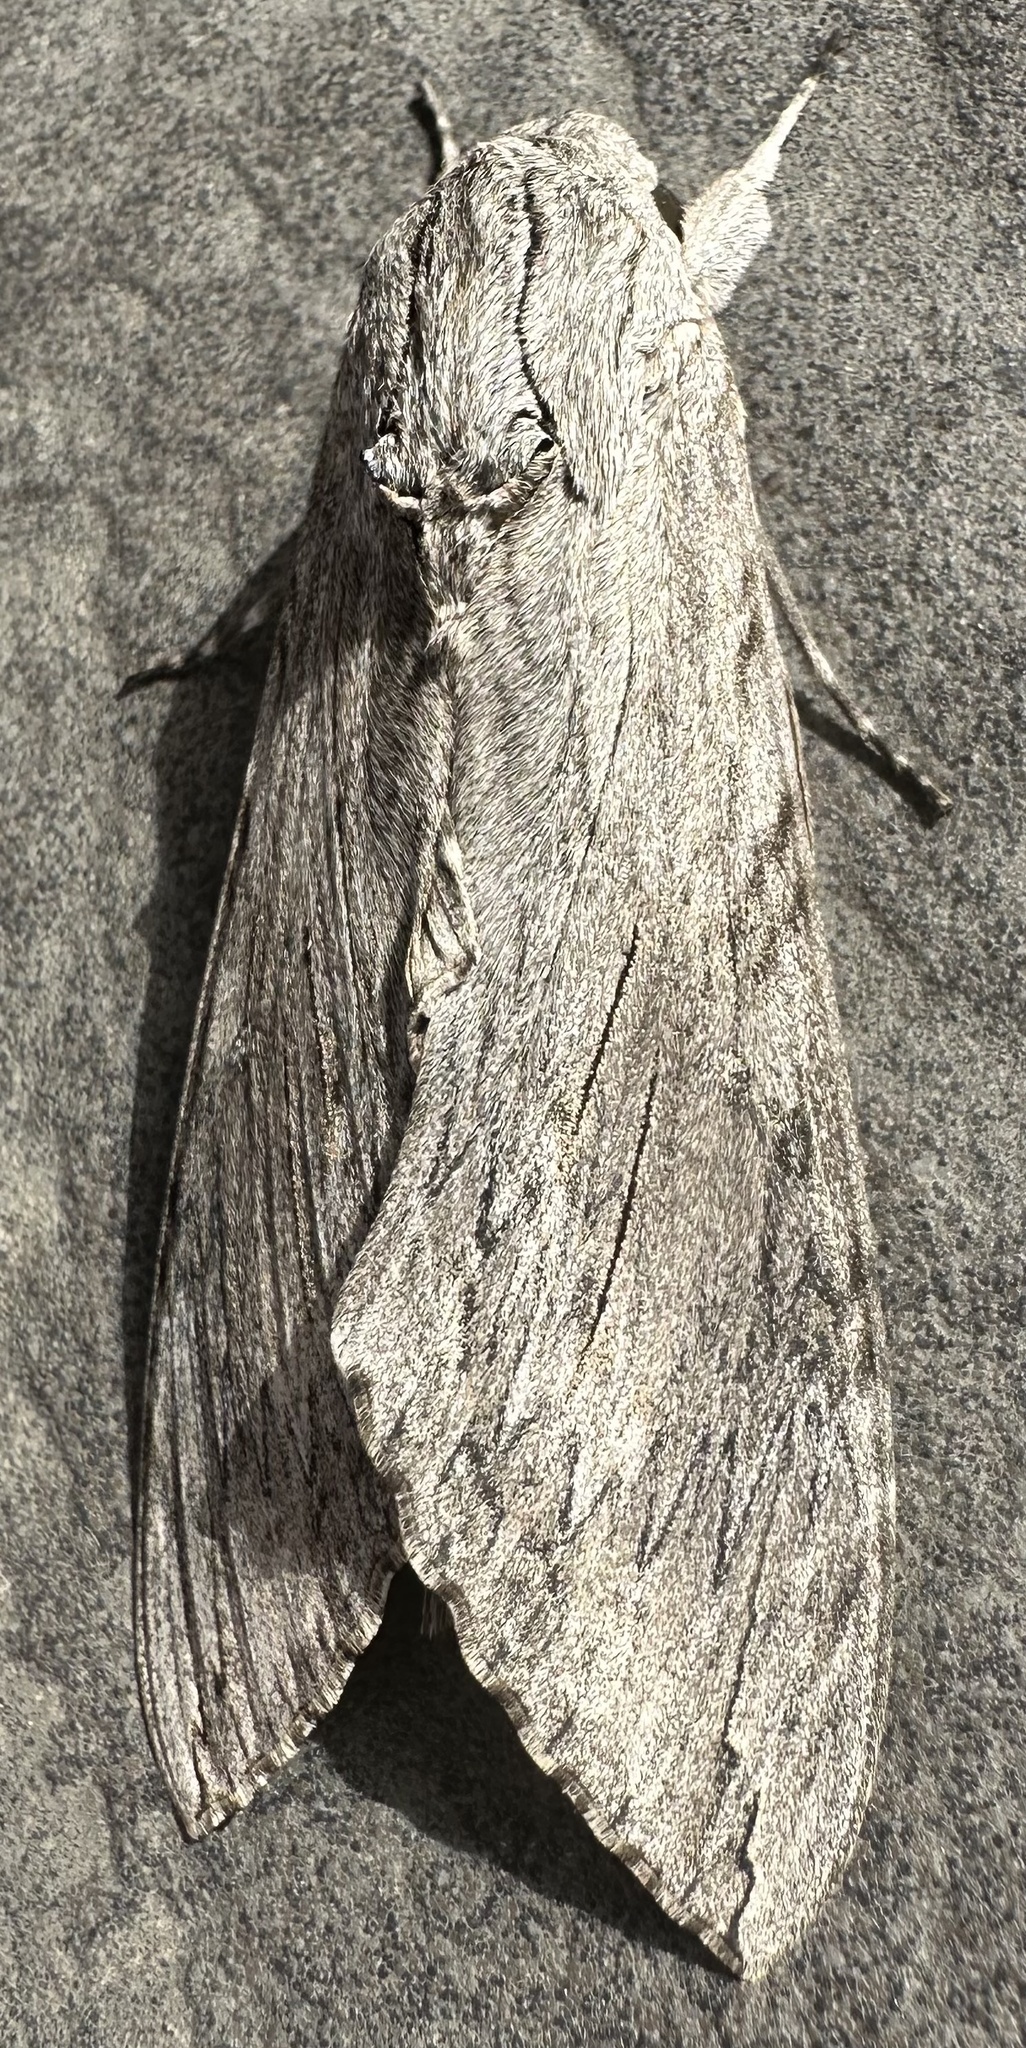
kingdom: Animalia
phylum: Arthropoda
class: Insecta
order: Lepidoptera
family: Sphingidae
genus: Agrius
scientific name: Agrius convolvuli
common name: Convolvulus hawkmoth
